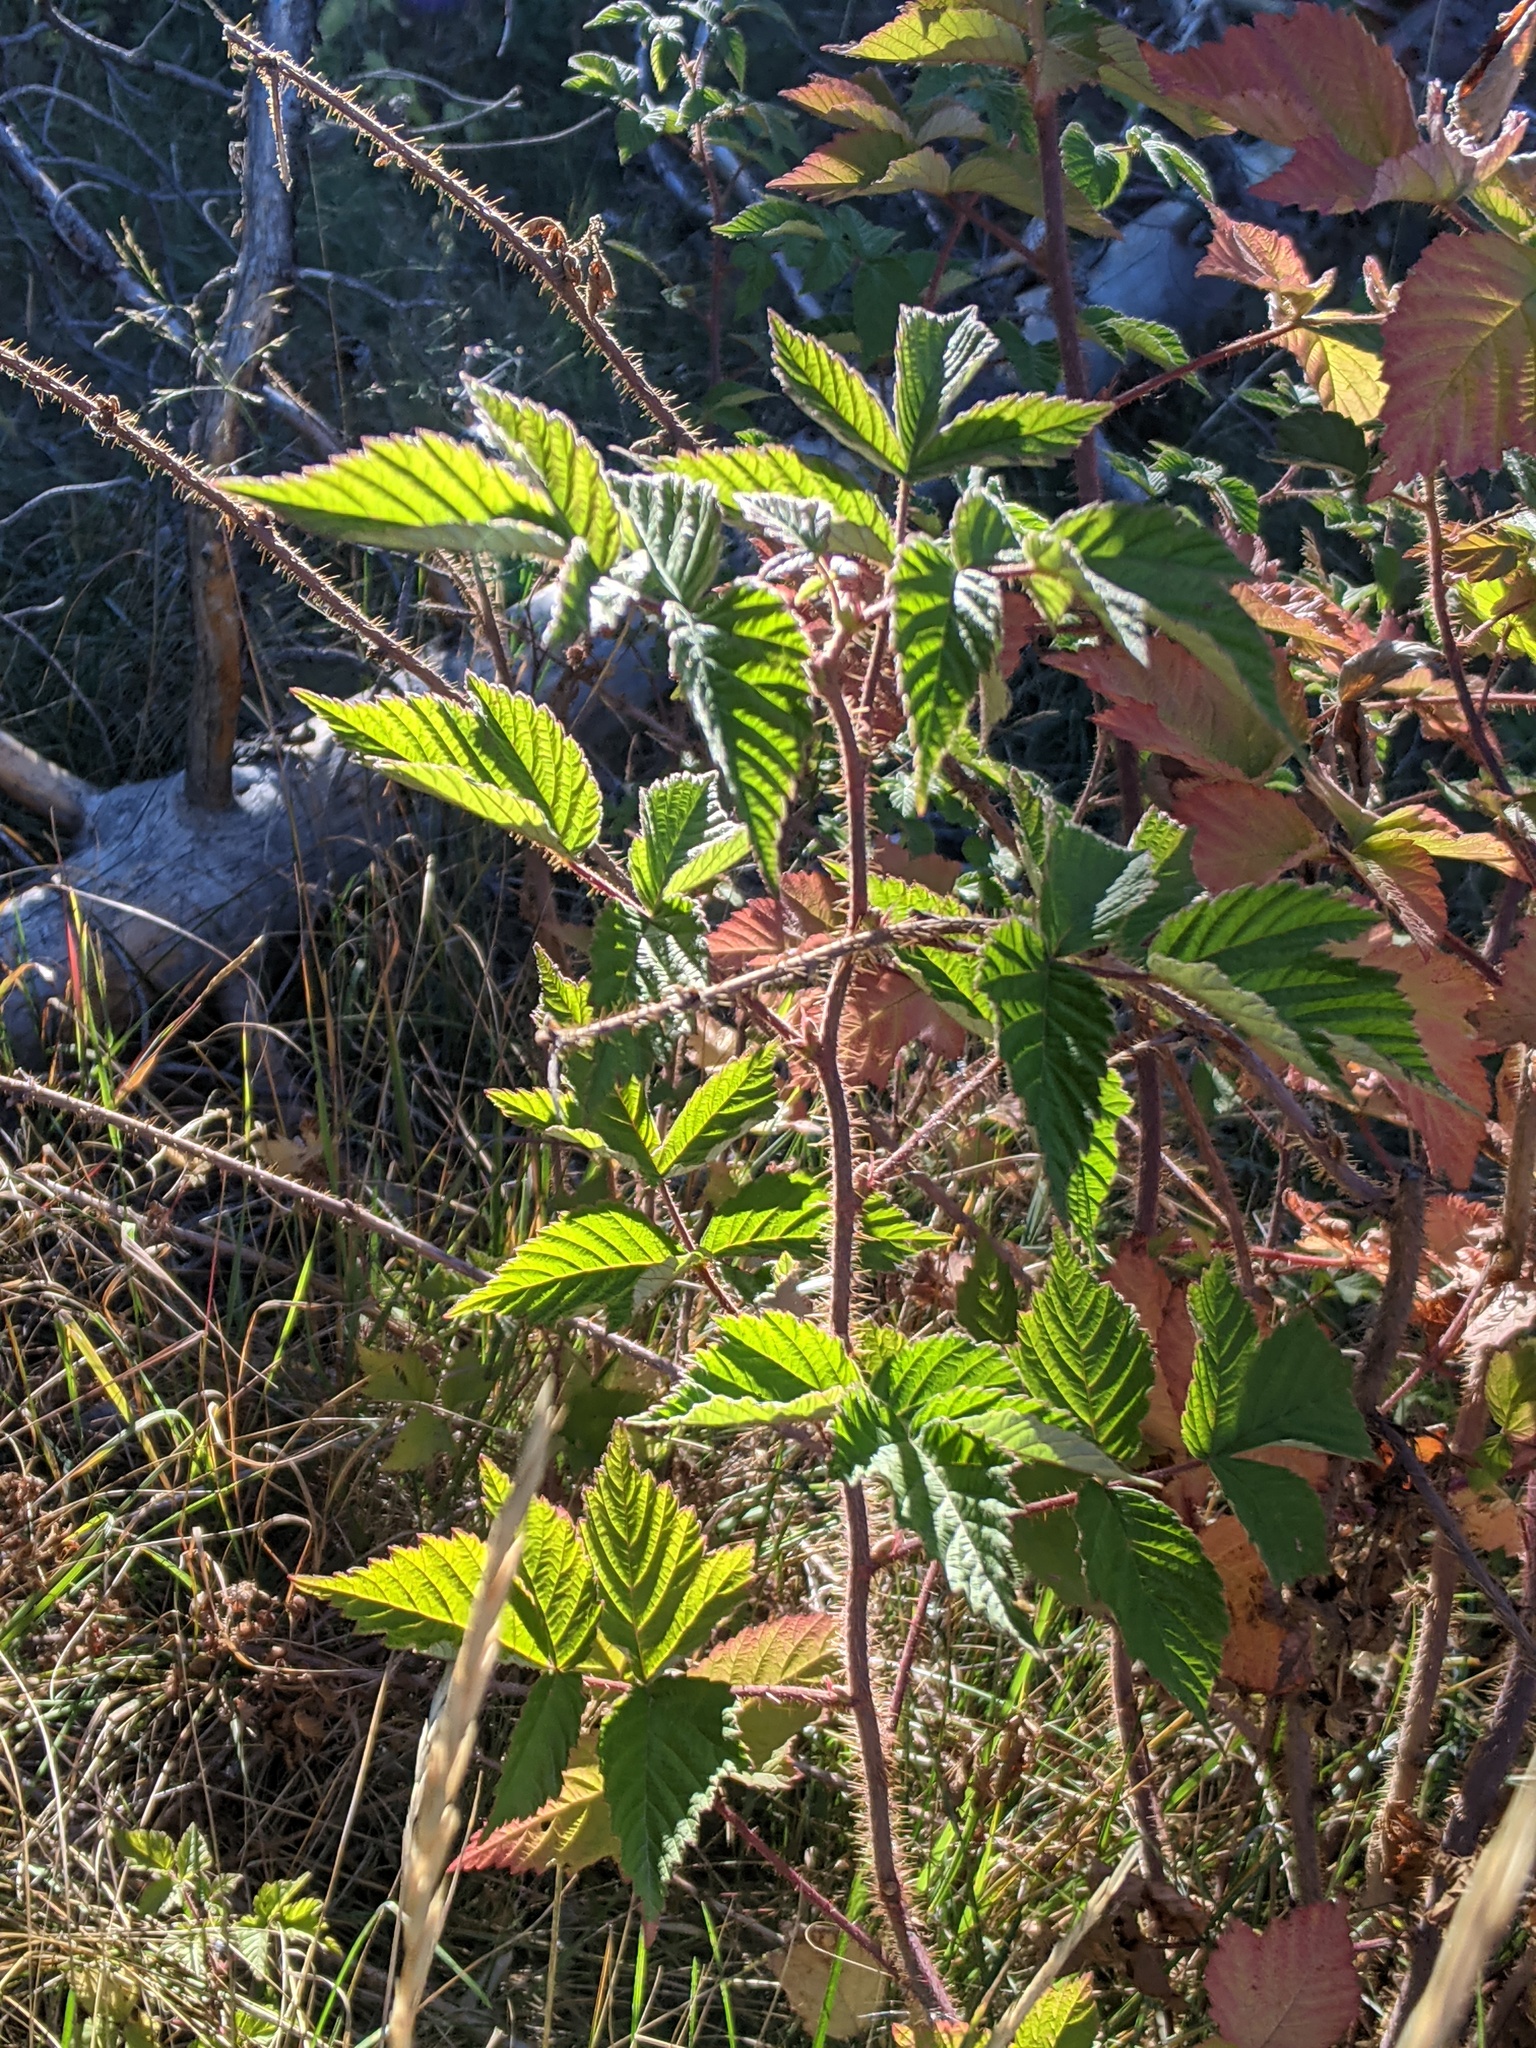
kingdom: Plantae
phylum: Tracheophyta
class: Magnoliopsida
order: Rosales
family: Rosaceae
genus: Rubus
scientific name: Rubus idaeus
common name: Raspberry
